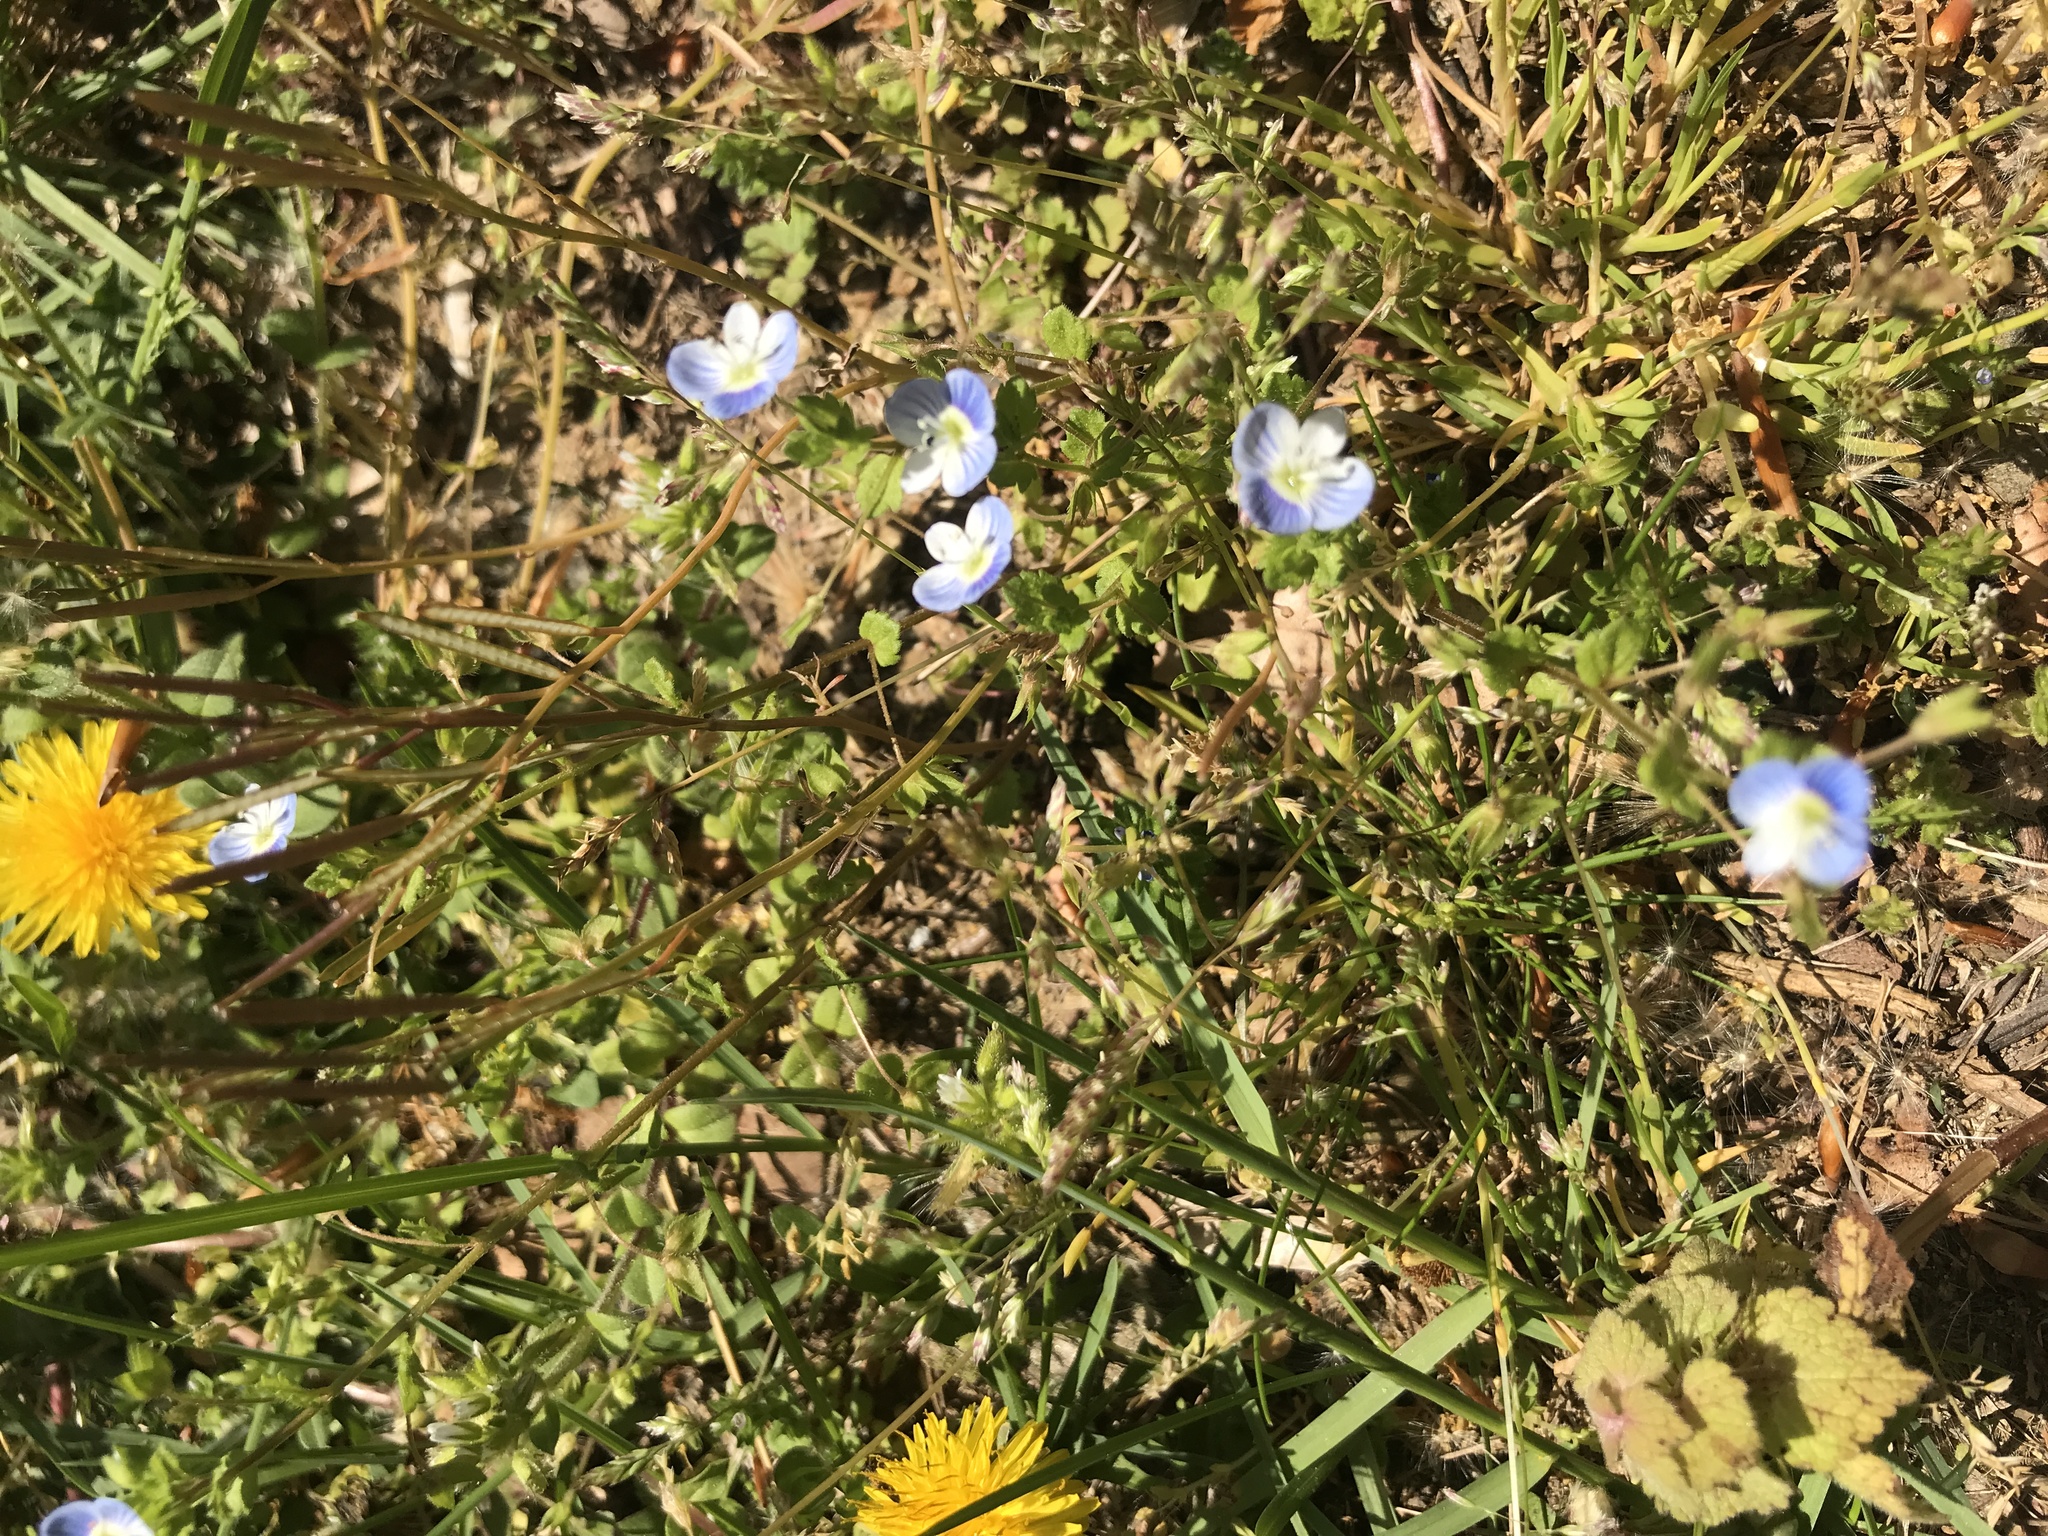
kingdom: Plantae
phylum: Tracheophyta
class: Magnoliopsida
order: Lamiales
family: Plantaginaceae
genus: Veronica
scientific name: Veronica persica
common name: Common field-speedwell
